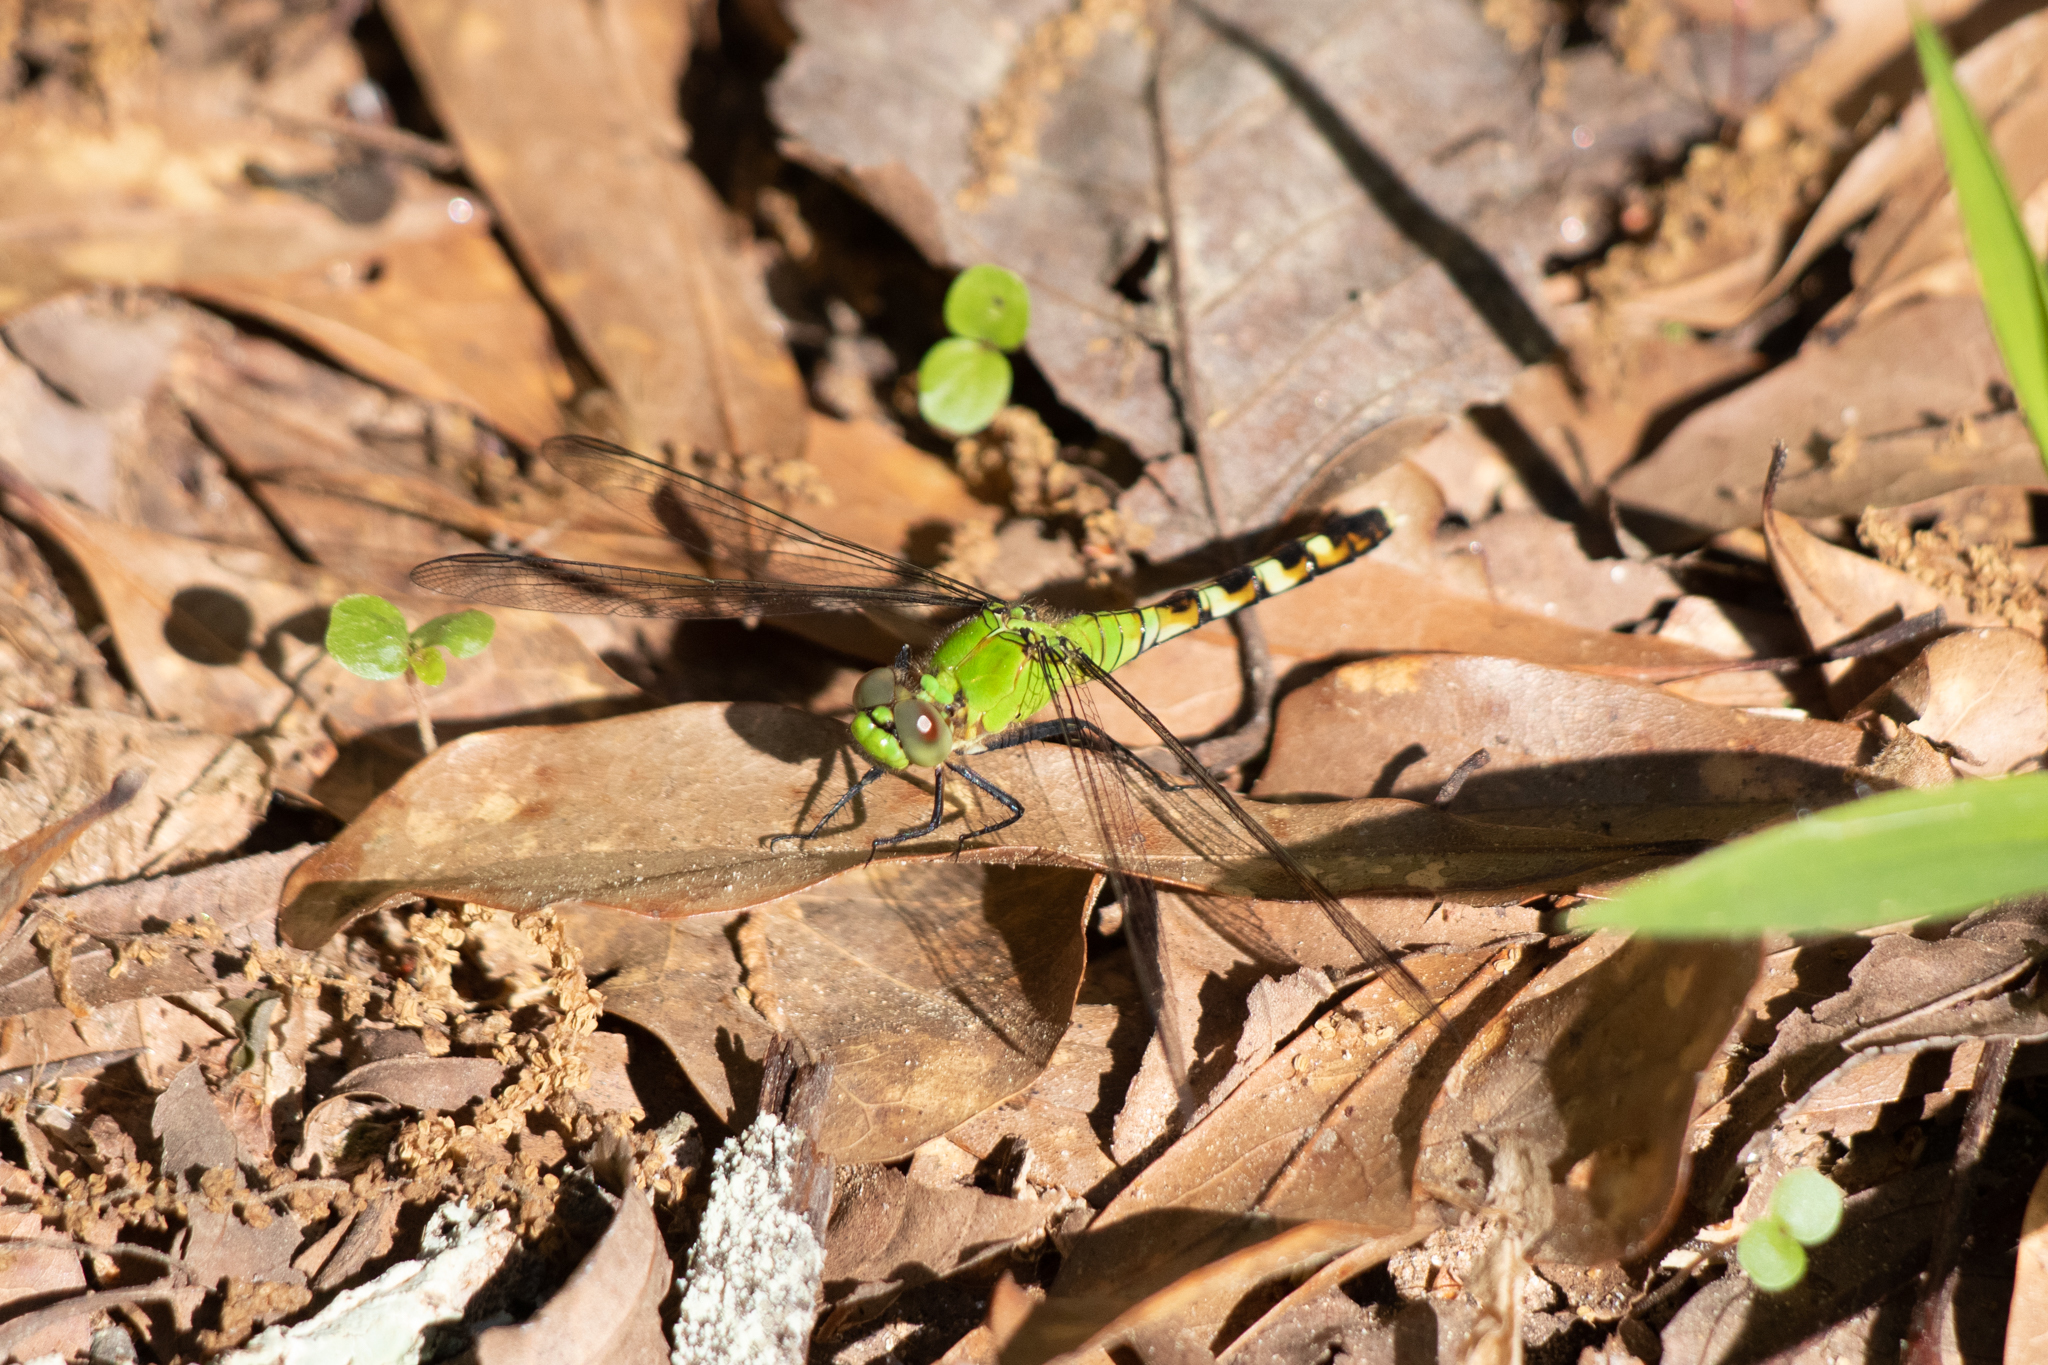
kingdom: Animalia
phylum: Arthropoda
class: Insecta
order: Odonata
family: Libellulidae
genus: Erythemis
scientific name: Erythemis simplicicollis
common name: Eastern pondhawk
